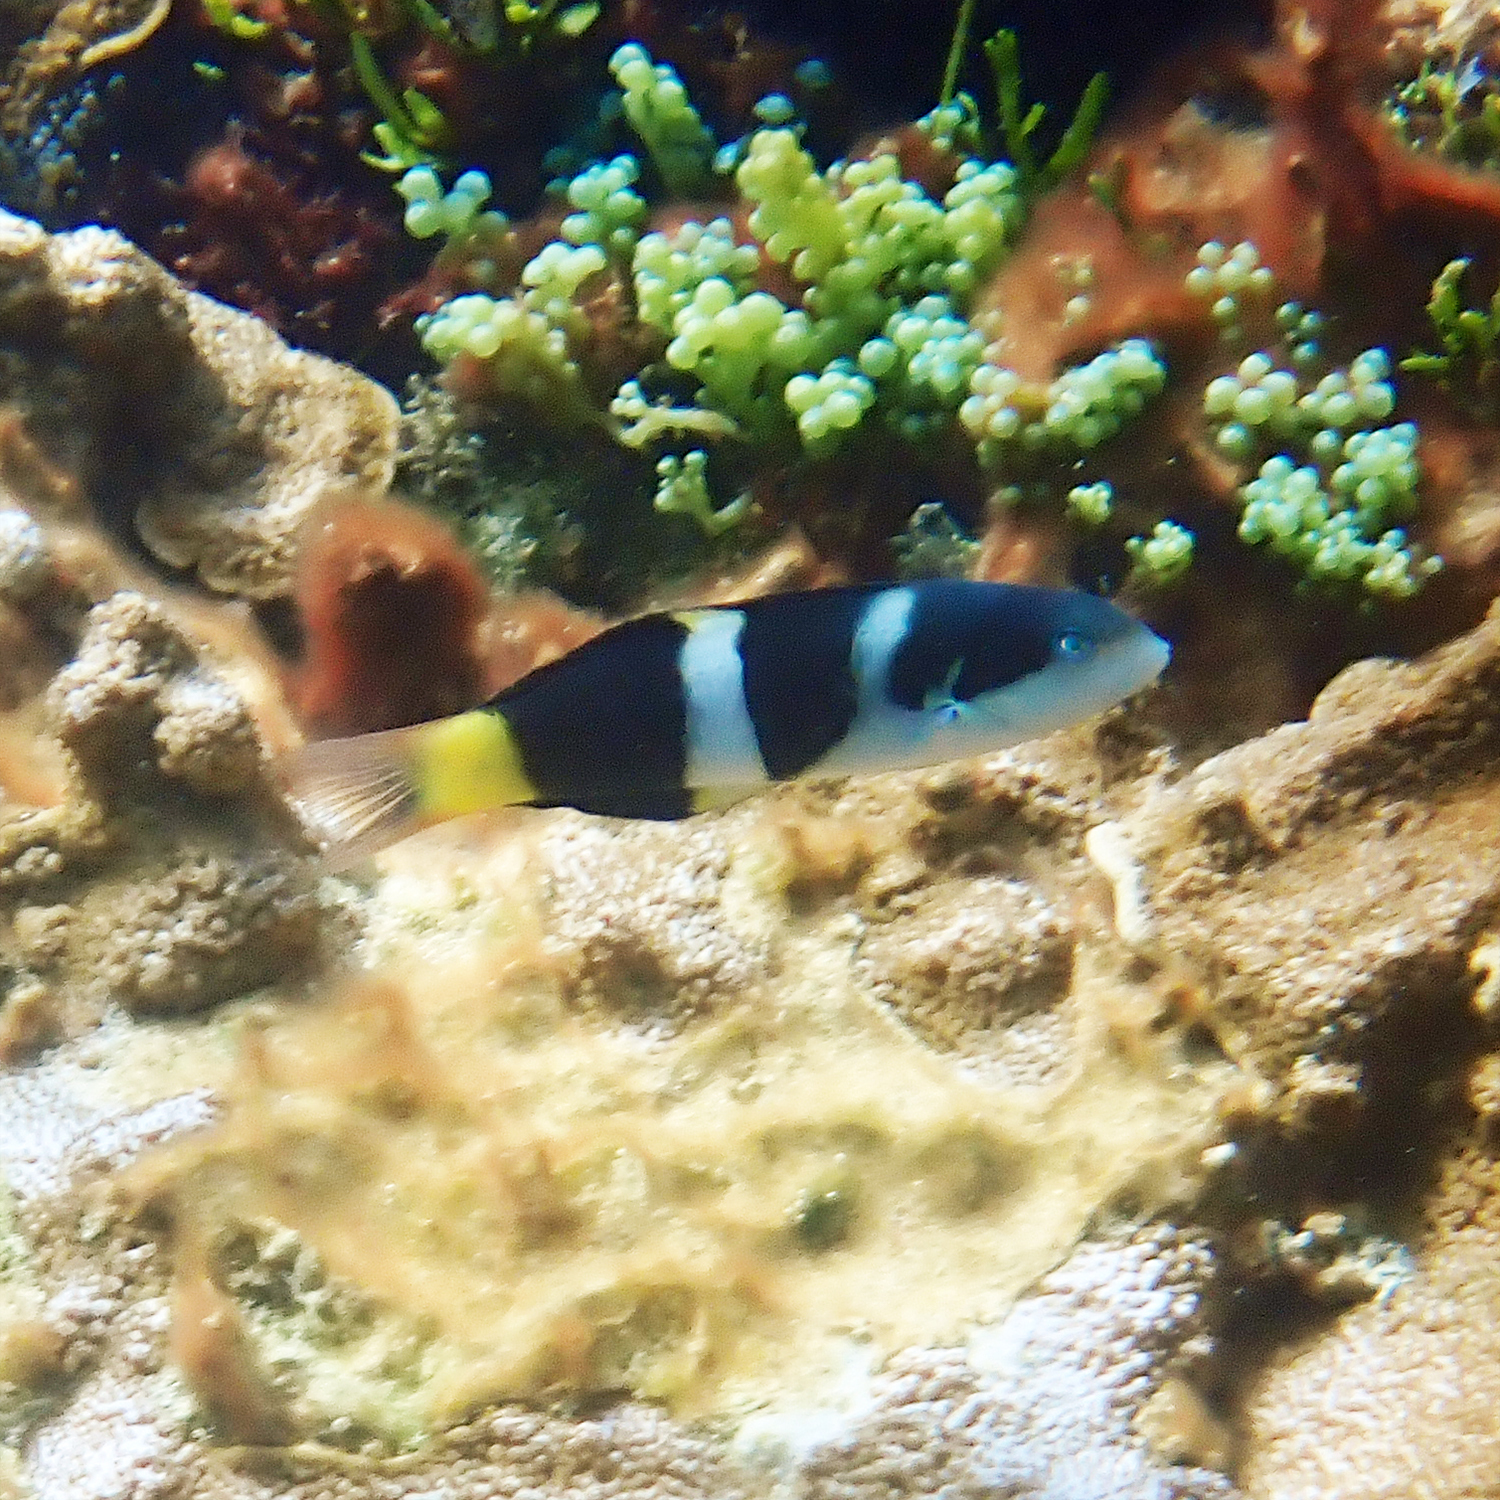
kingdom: Animalia
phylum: Chordata
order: Perciformes
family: Labridae
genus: Thalassoma
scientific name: Thalassoma nigrofasciatum
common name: Black-barred wrasse
